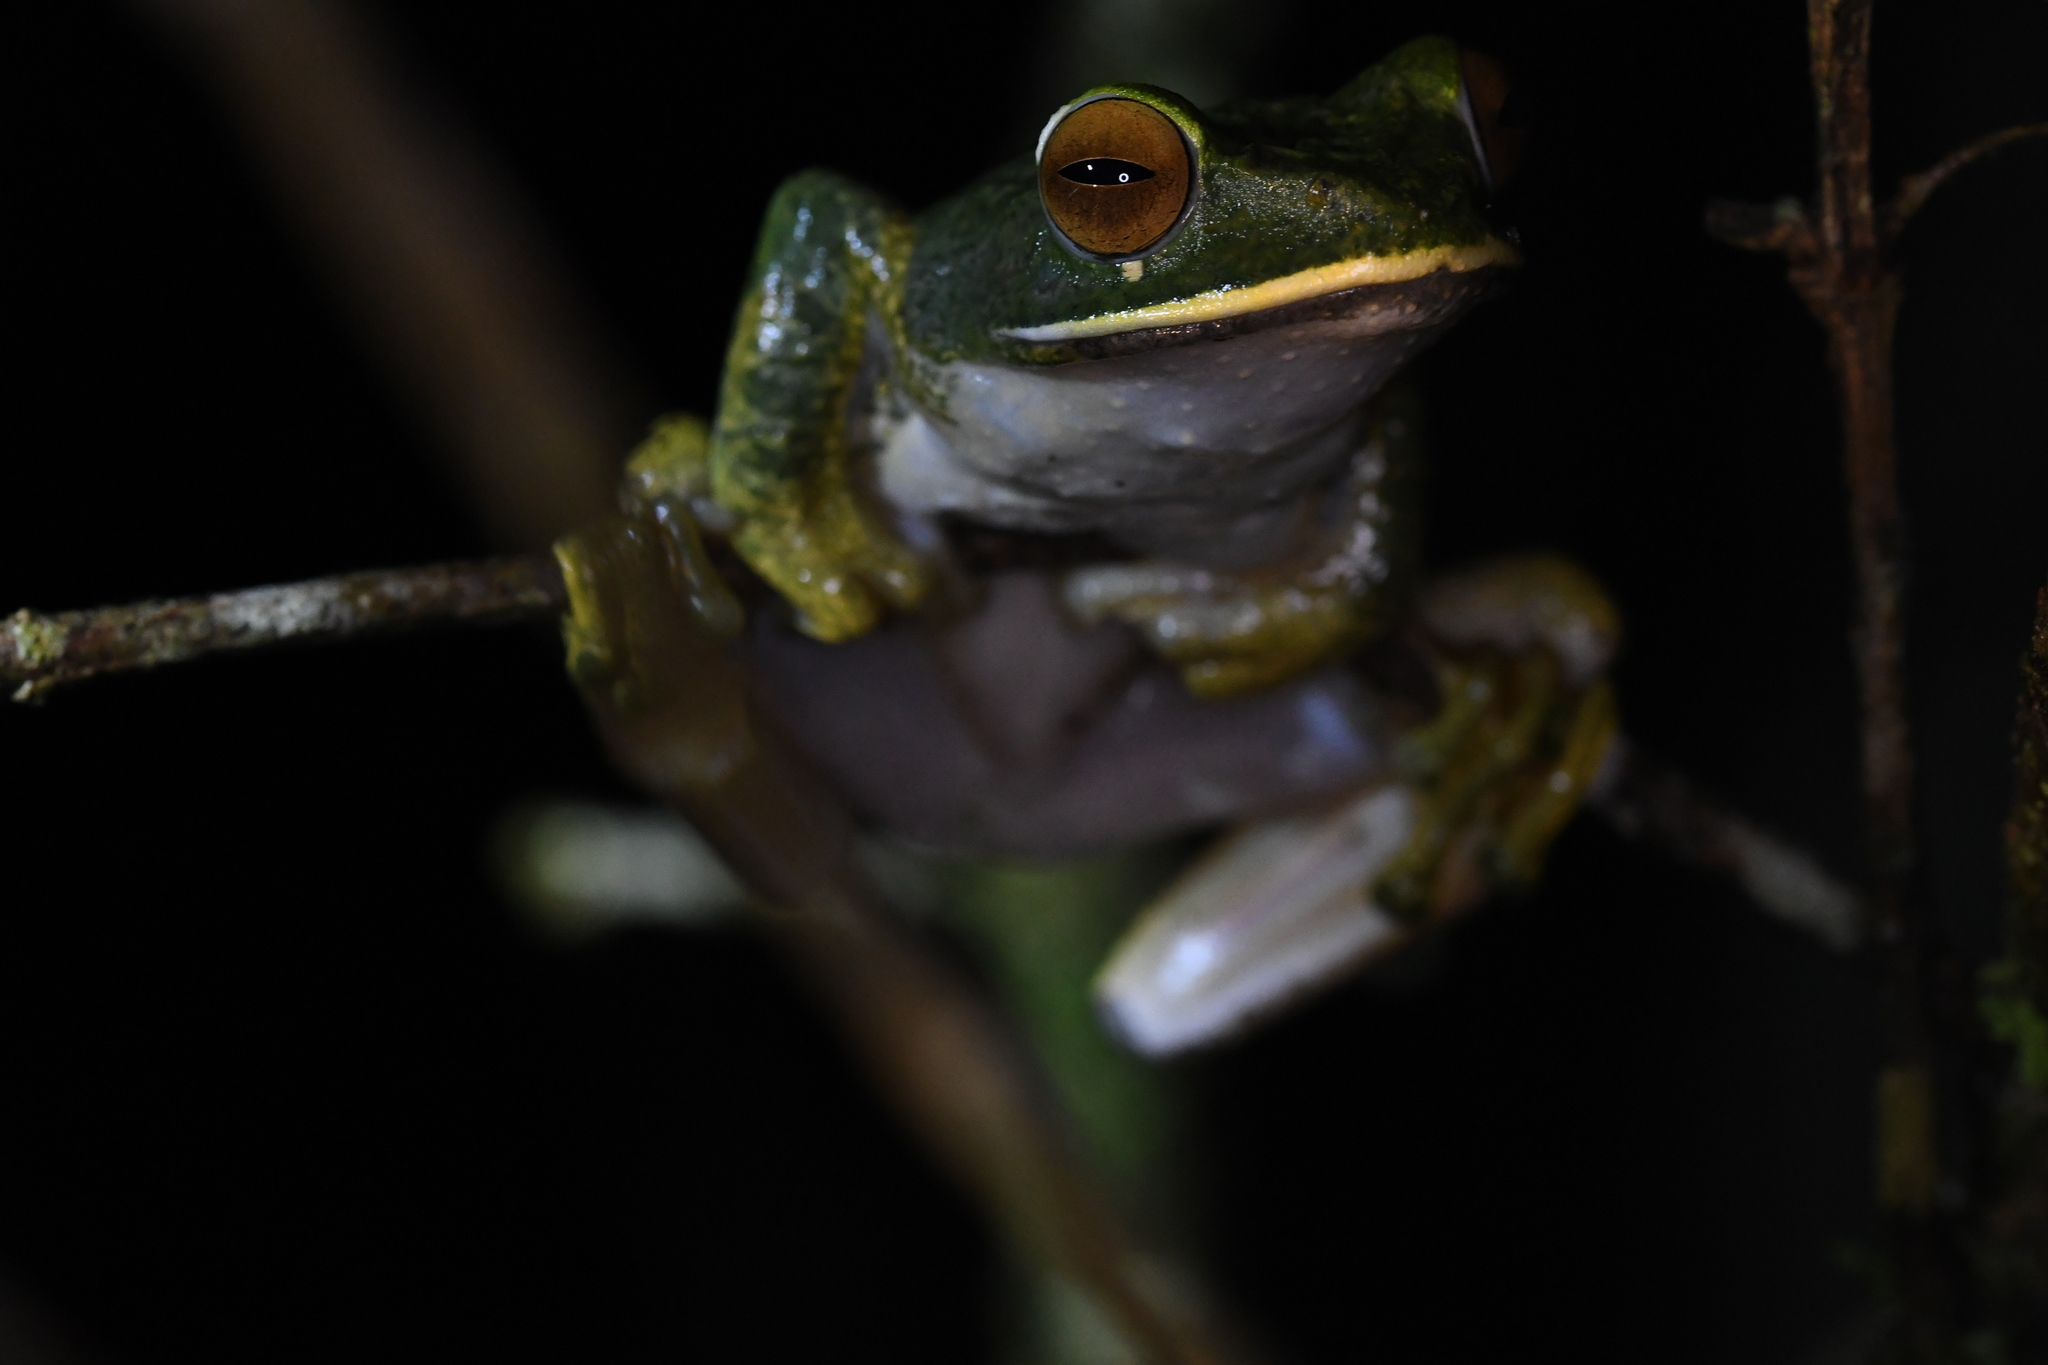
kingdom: Animalia
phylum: Chordata
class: Amphibia
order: Anura
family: Mantellidae
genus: Boophis
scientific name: Boophis albilabris
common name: White-lipped bright-eyed frog
